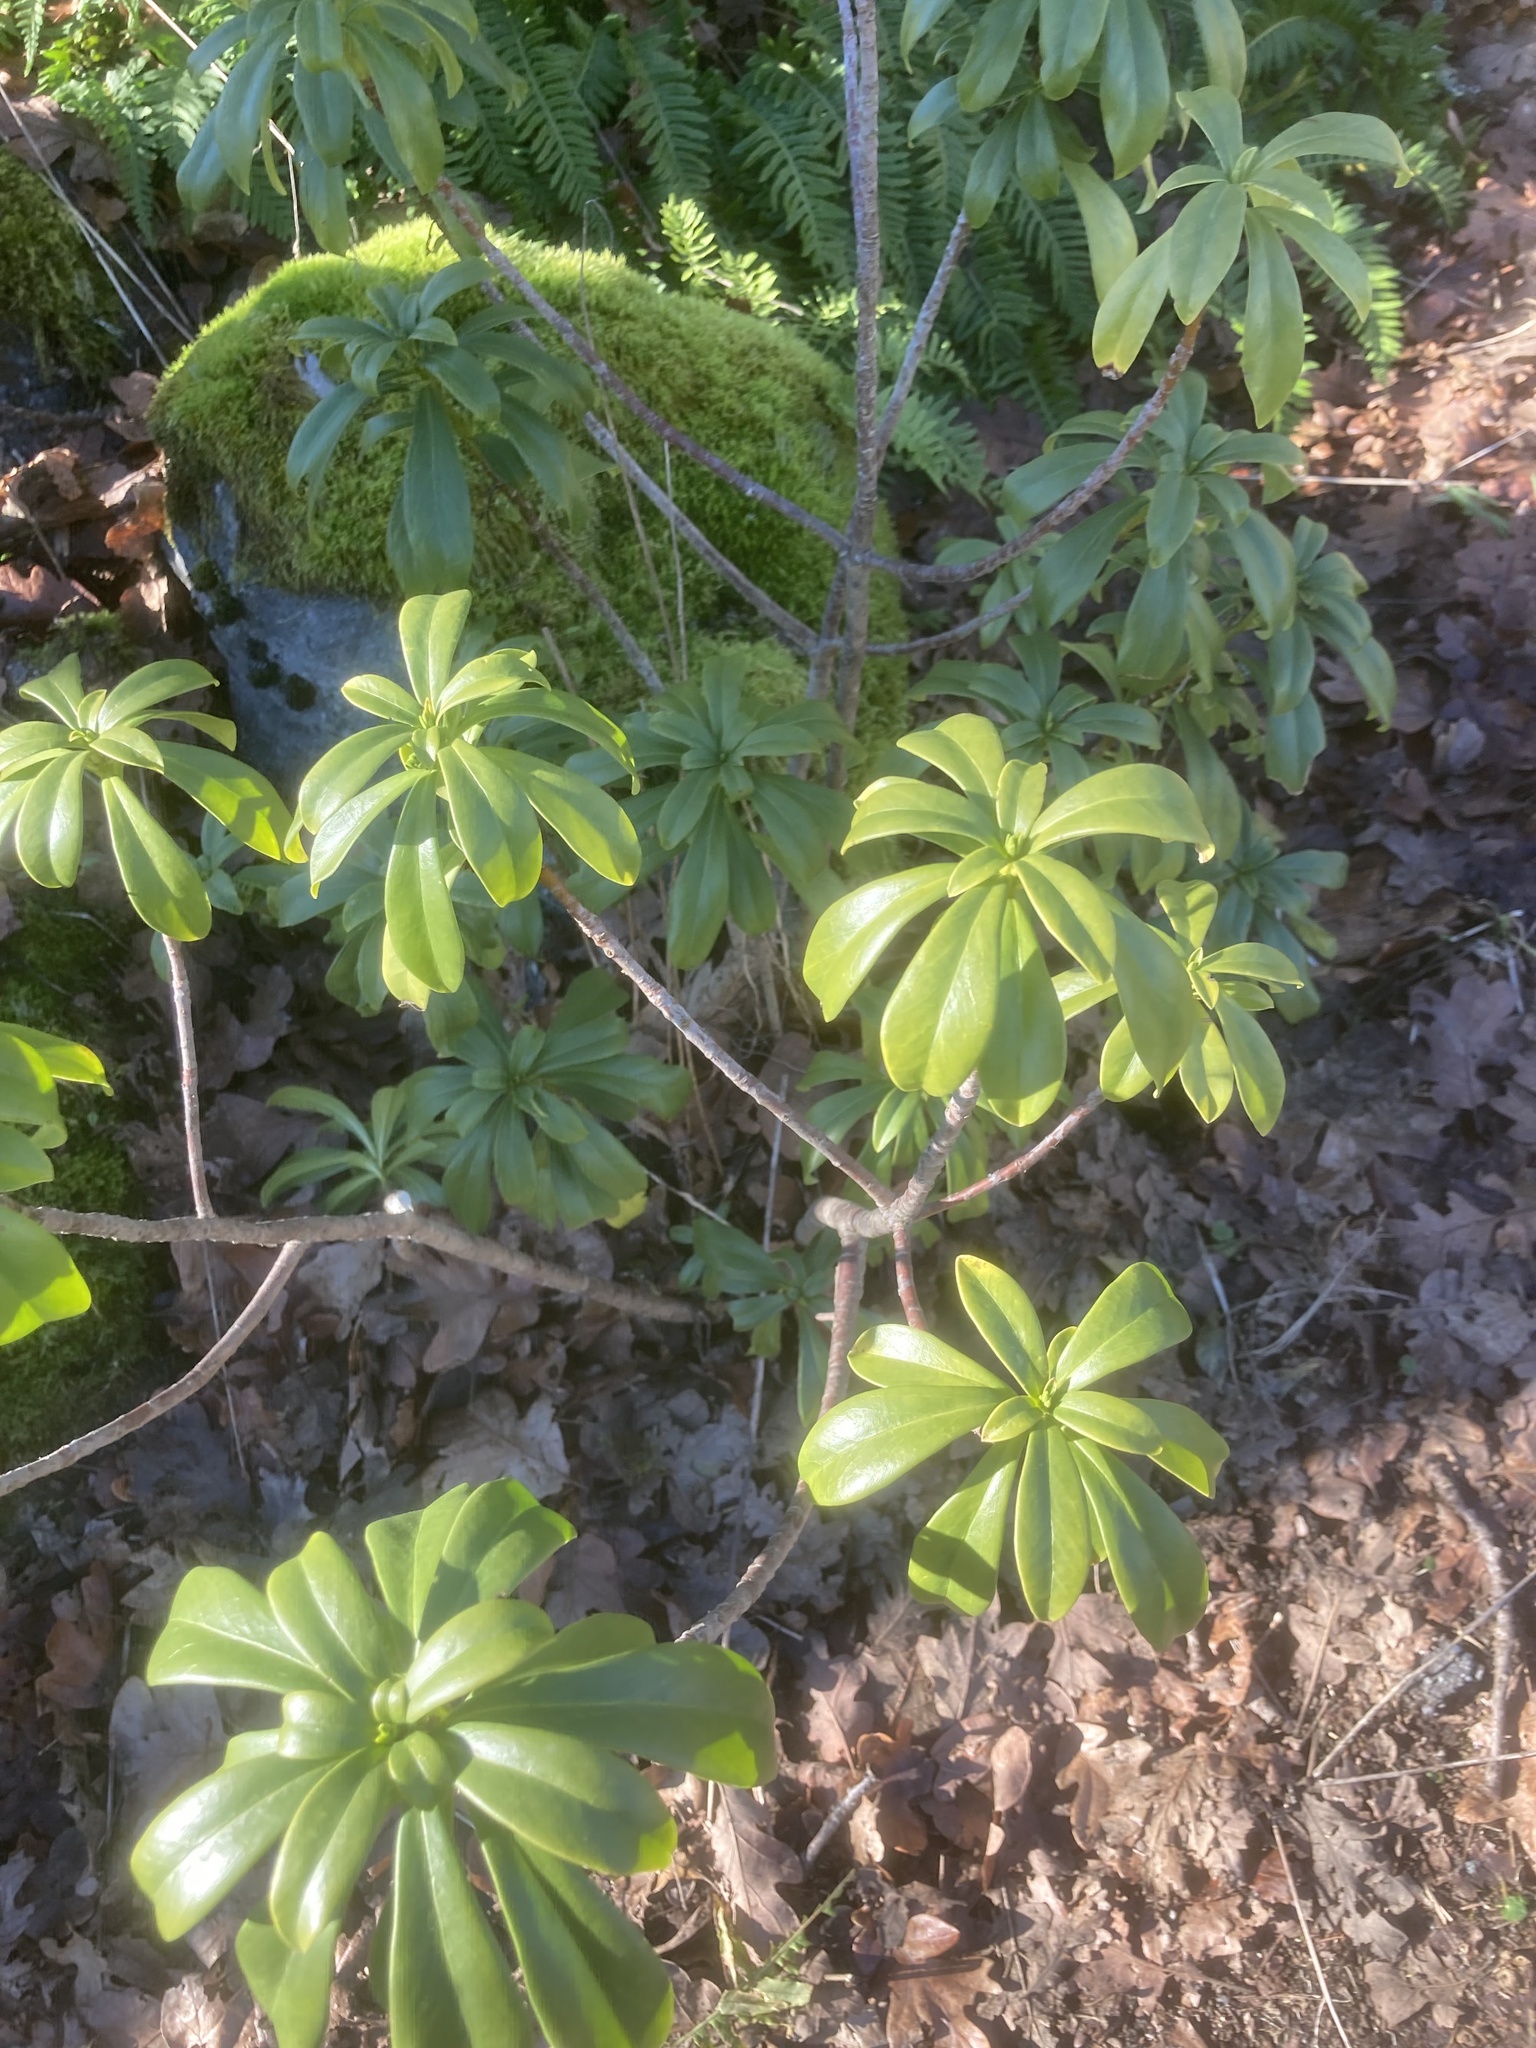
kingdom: Plantae
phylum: Tracheophyta
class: Magnoliopsida
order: Malvales
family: Thymelaeaceae
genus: Daphne
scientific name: Daphne laureola
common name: Spurge-laurel
